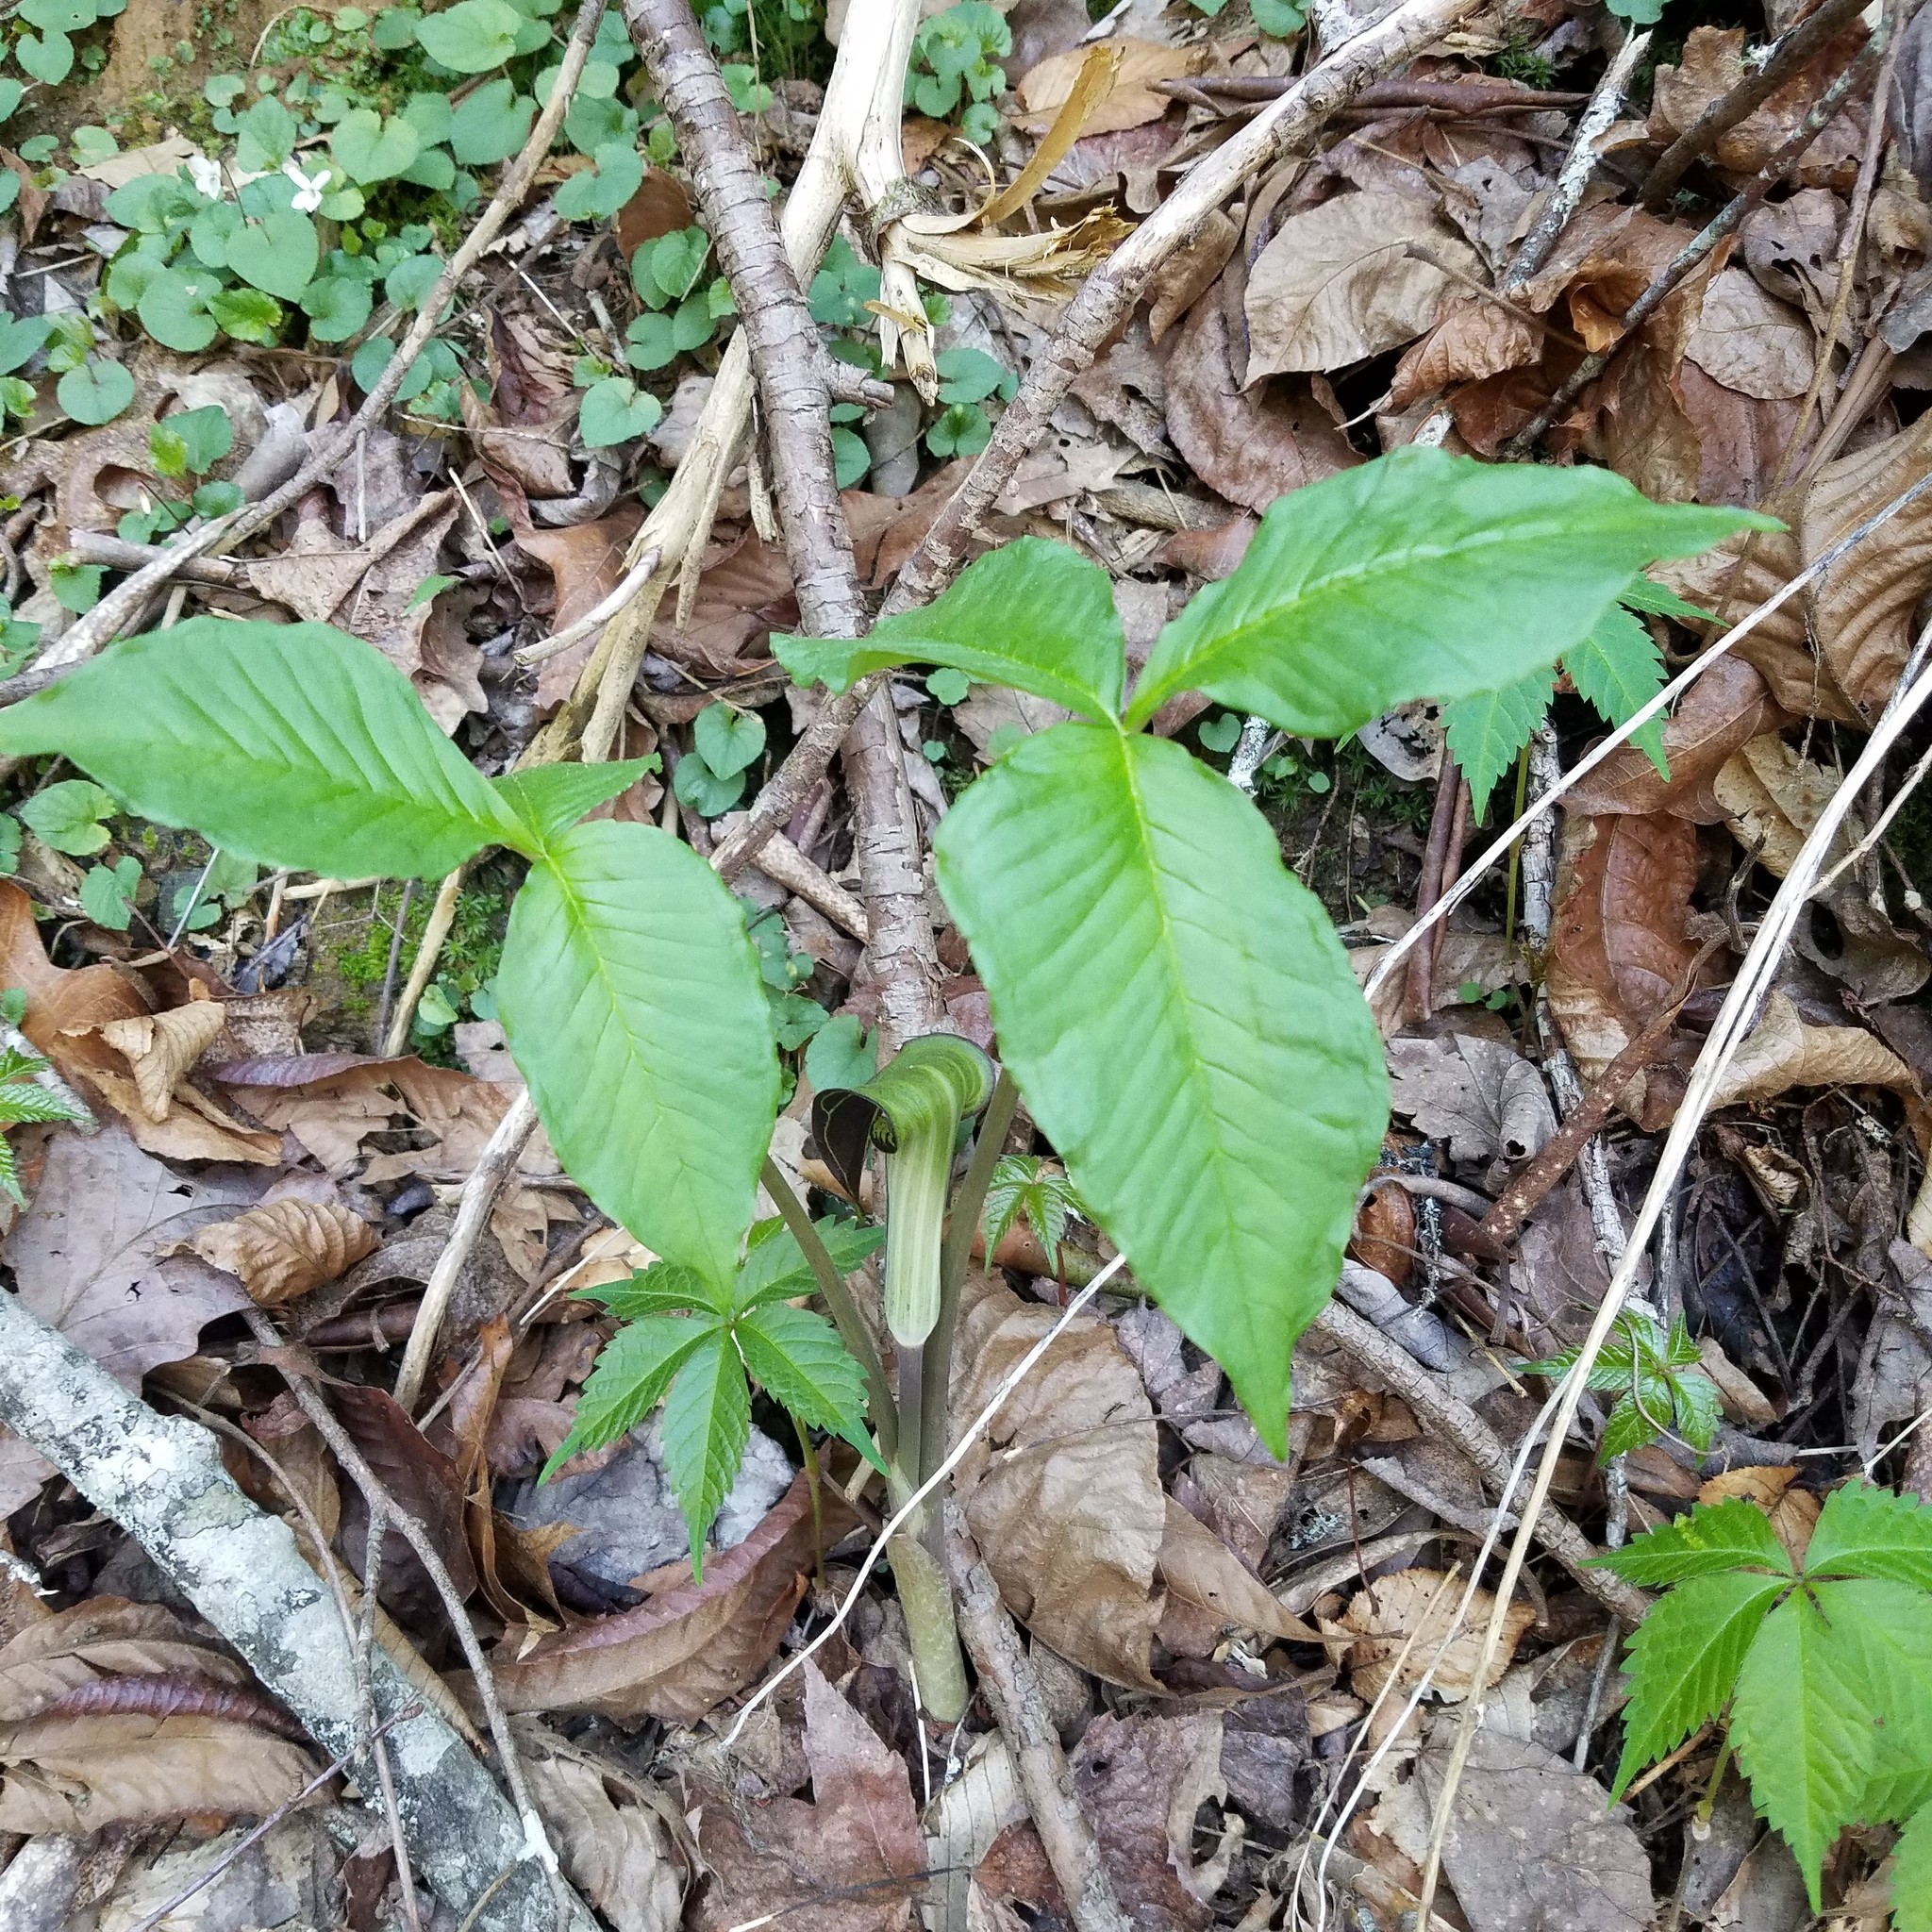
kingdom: Plantae
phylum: Tracheophyta
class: Liliopsida
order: Alismatales
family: Araceae
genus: Arisaema
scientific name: Arisaema triphyllum
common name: Jack-in-the-pulpit
